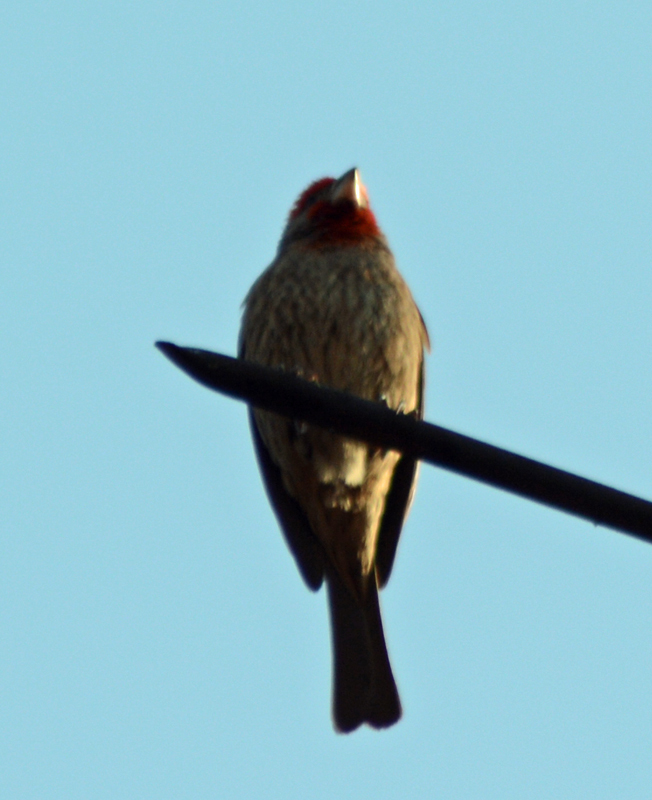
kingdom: Animalia
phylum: Chordata
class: Aves
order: Passeriformes
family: Fringillidae
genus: Haemorhous
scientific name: Haemorhous mexicanus
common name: House finch
